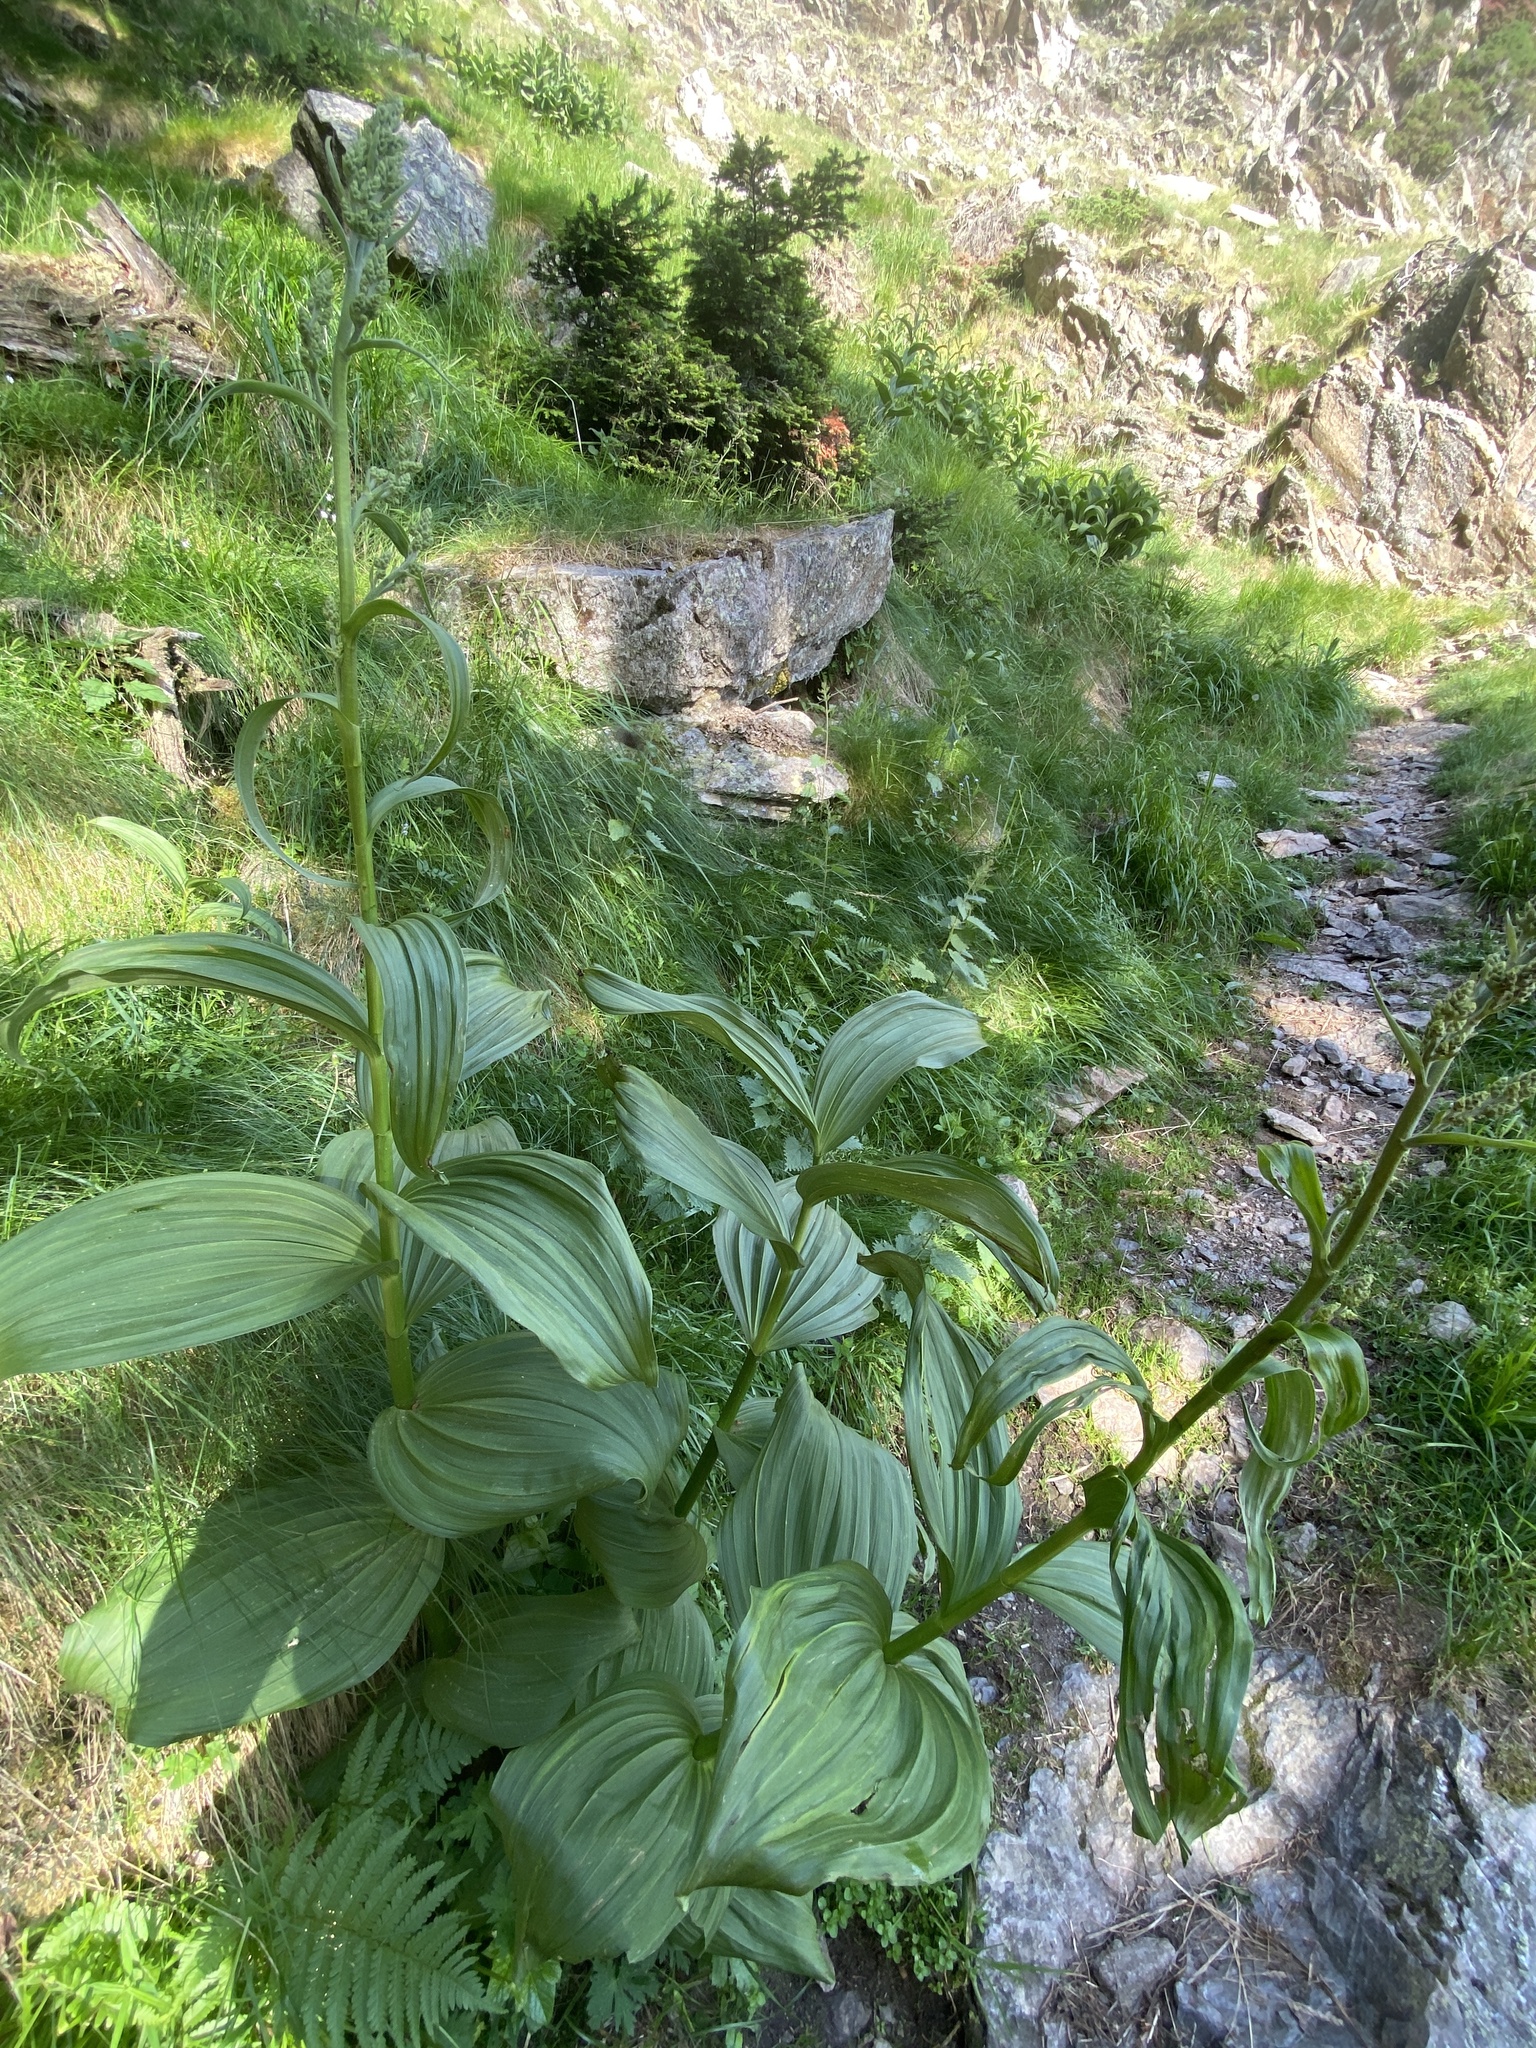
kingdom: Plantae
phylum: Tracheophyta
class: Liliopsida
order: Liliales
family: Melanthiaceae
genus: Veratrum
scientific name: Veratrum album
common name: White veratrum
